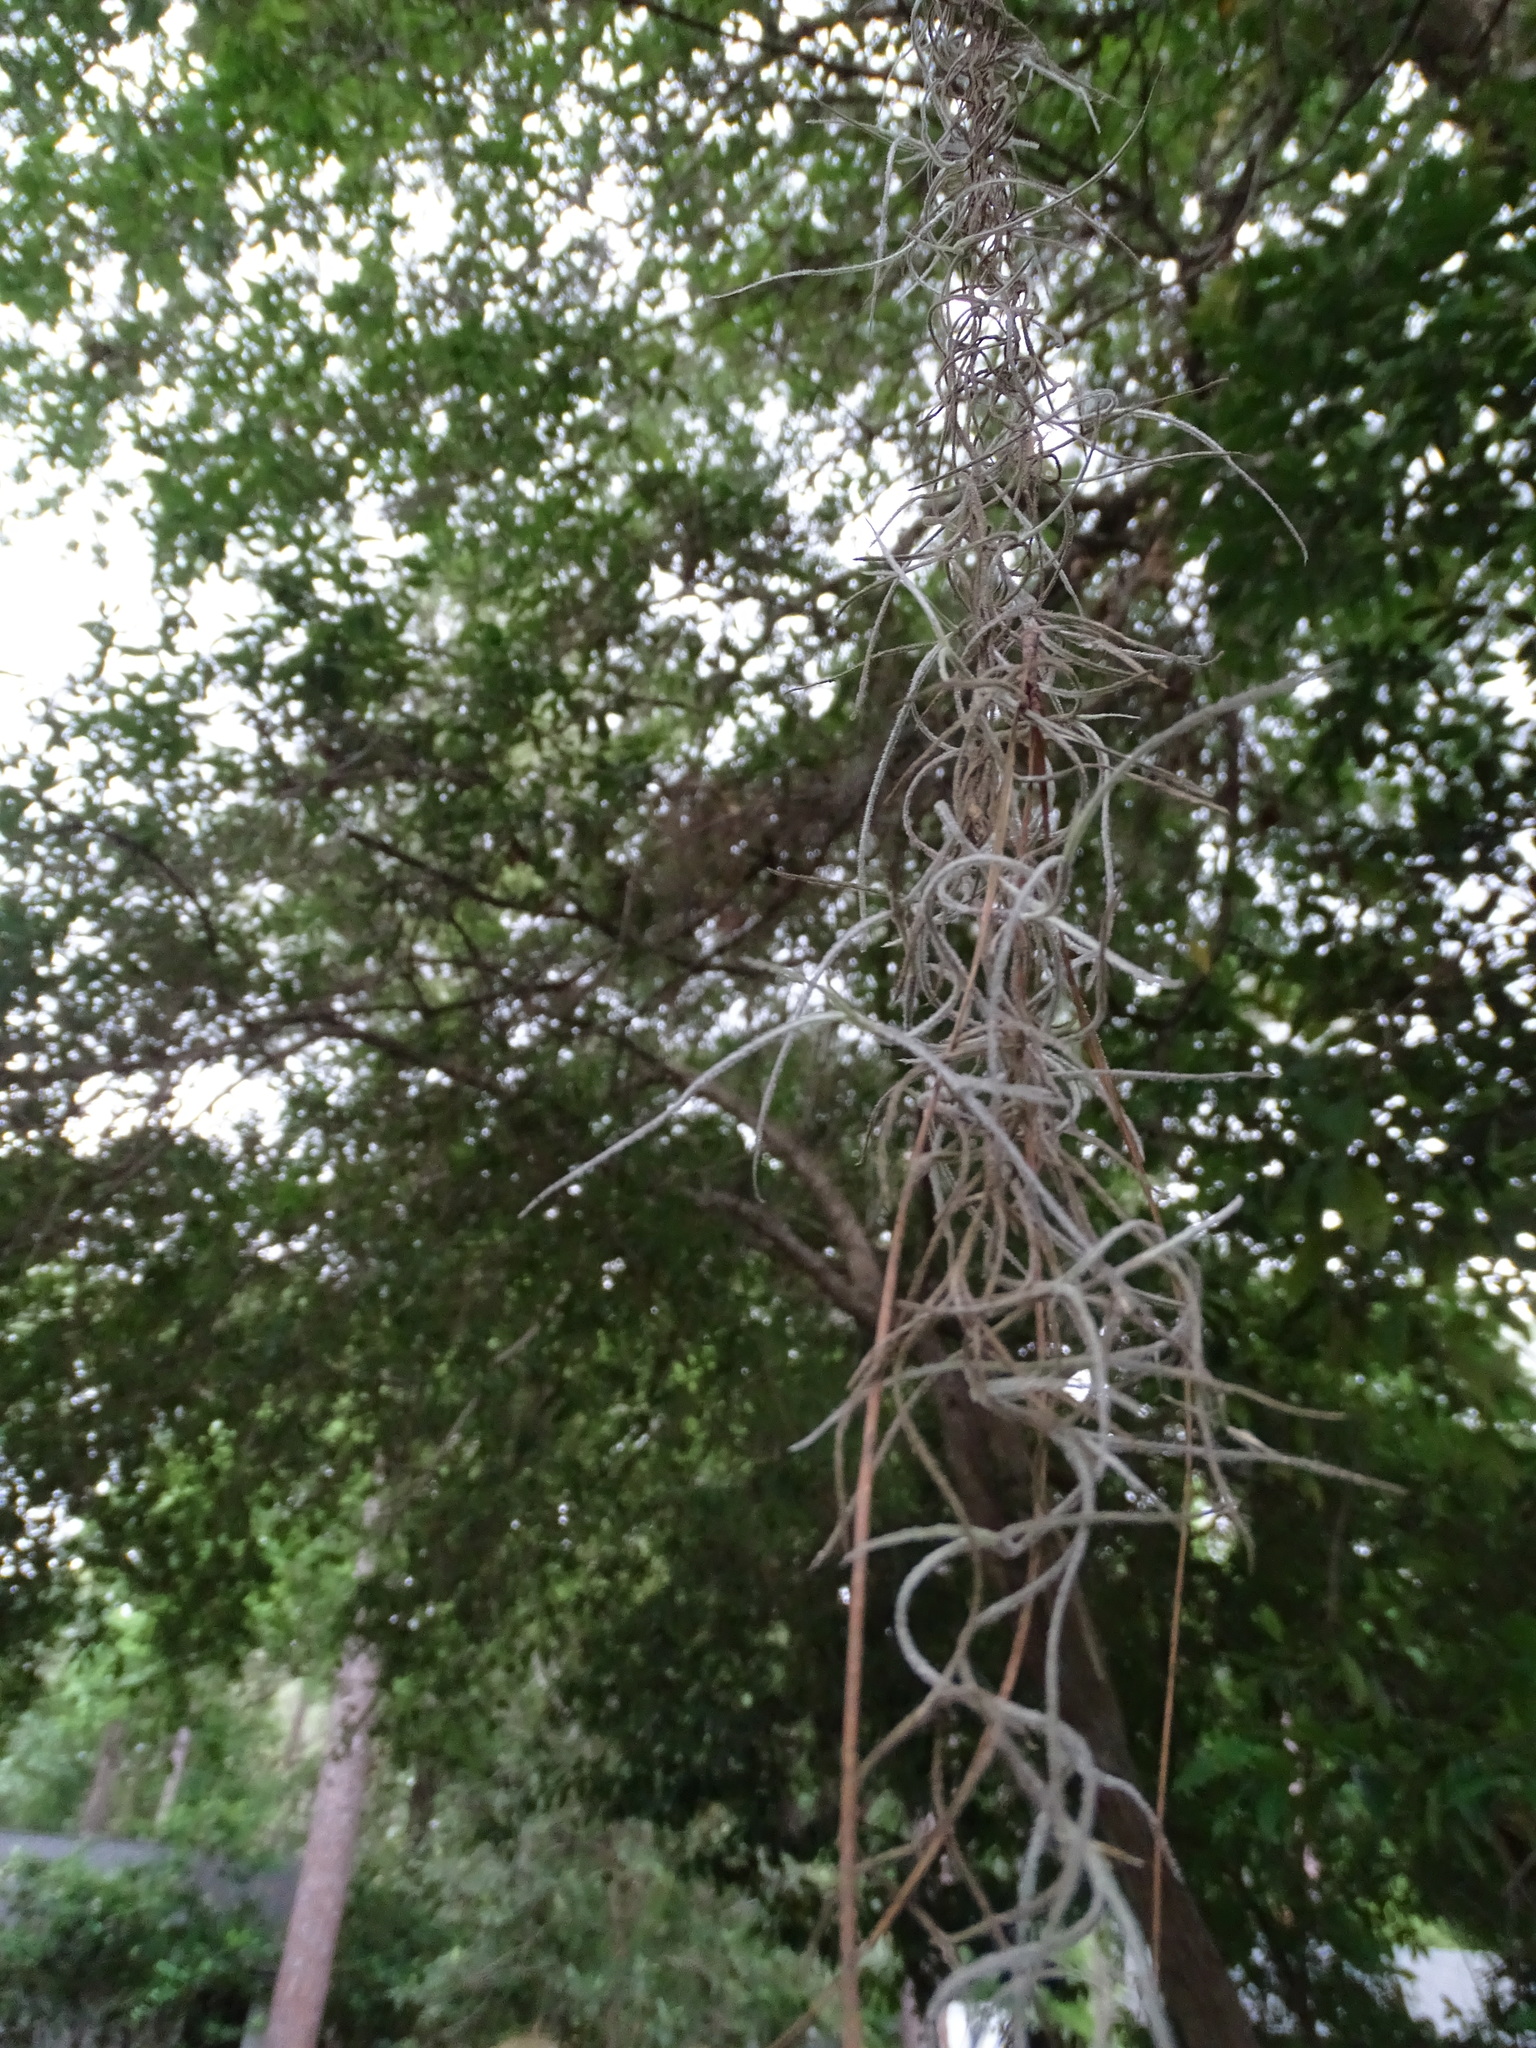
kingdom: Plantae
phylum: Tracheophyta
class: Liliopsida
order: Poales
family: Bromeliaceae
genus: Tillandsia
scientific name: Tillandsia usneoides
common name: Spanish moss
